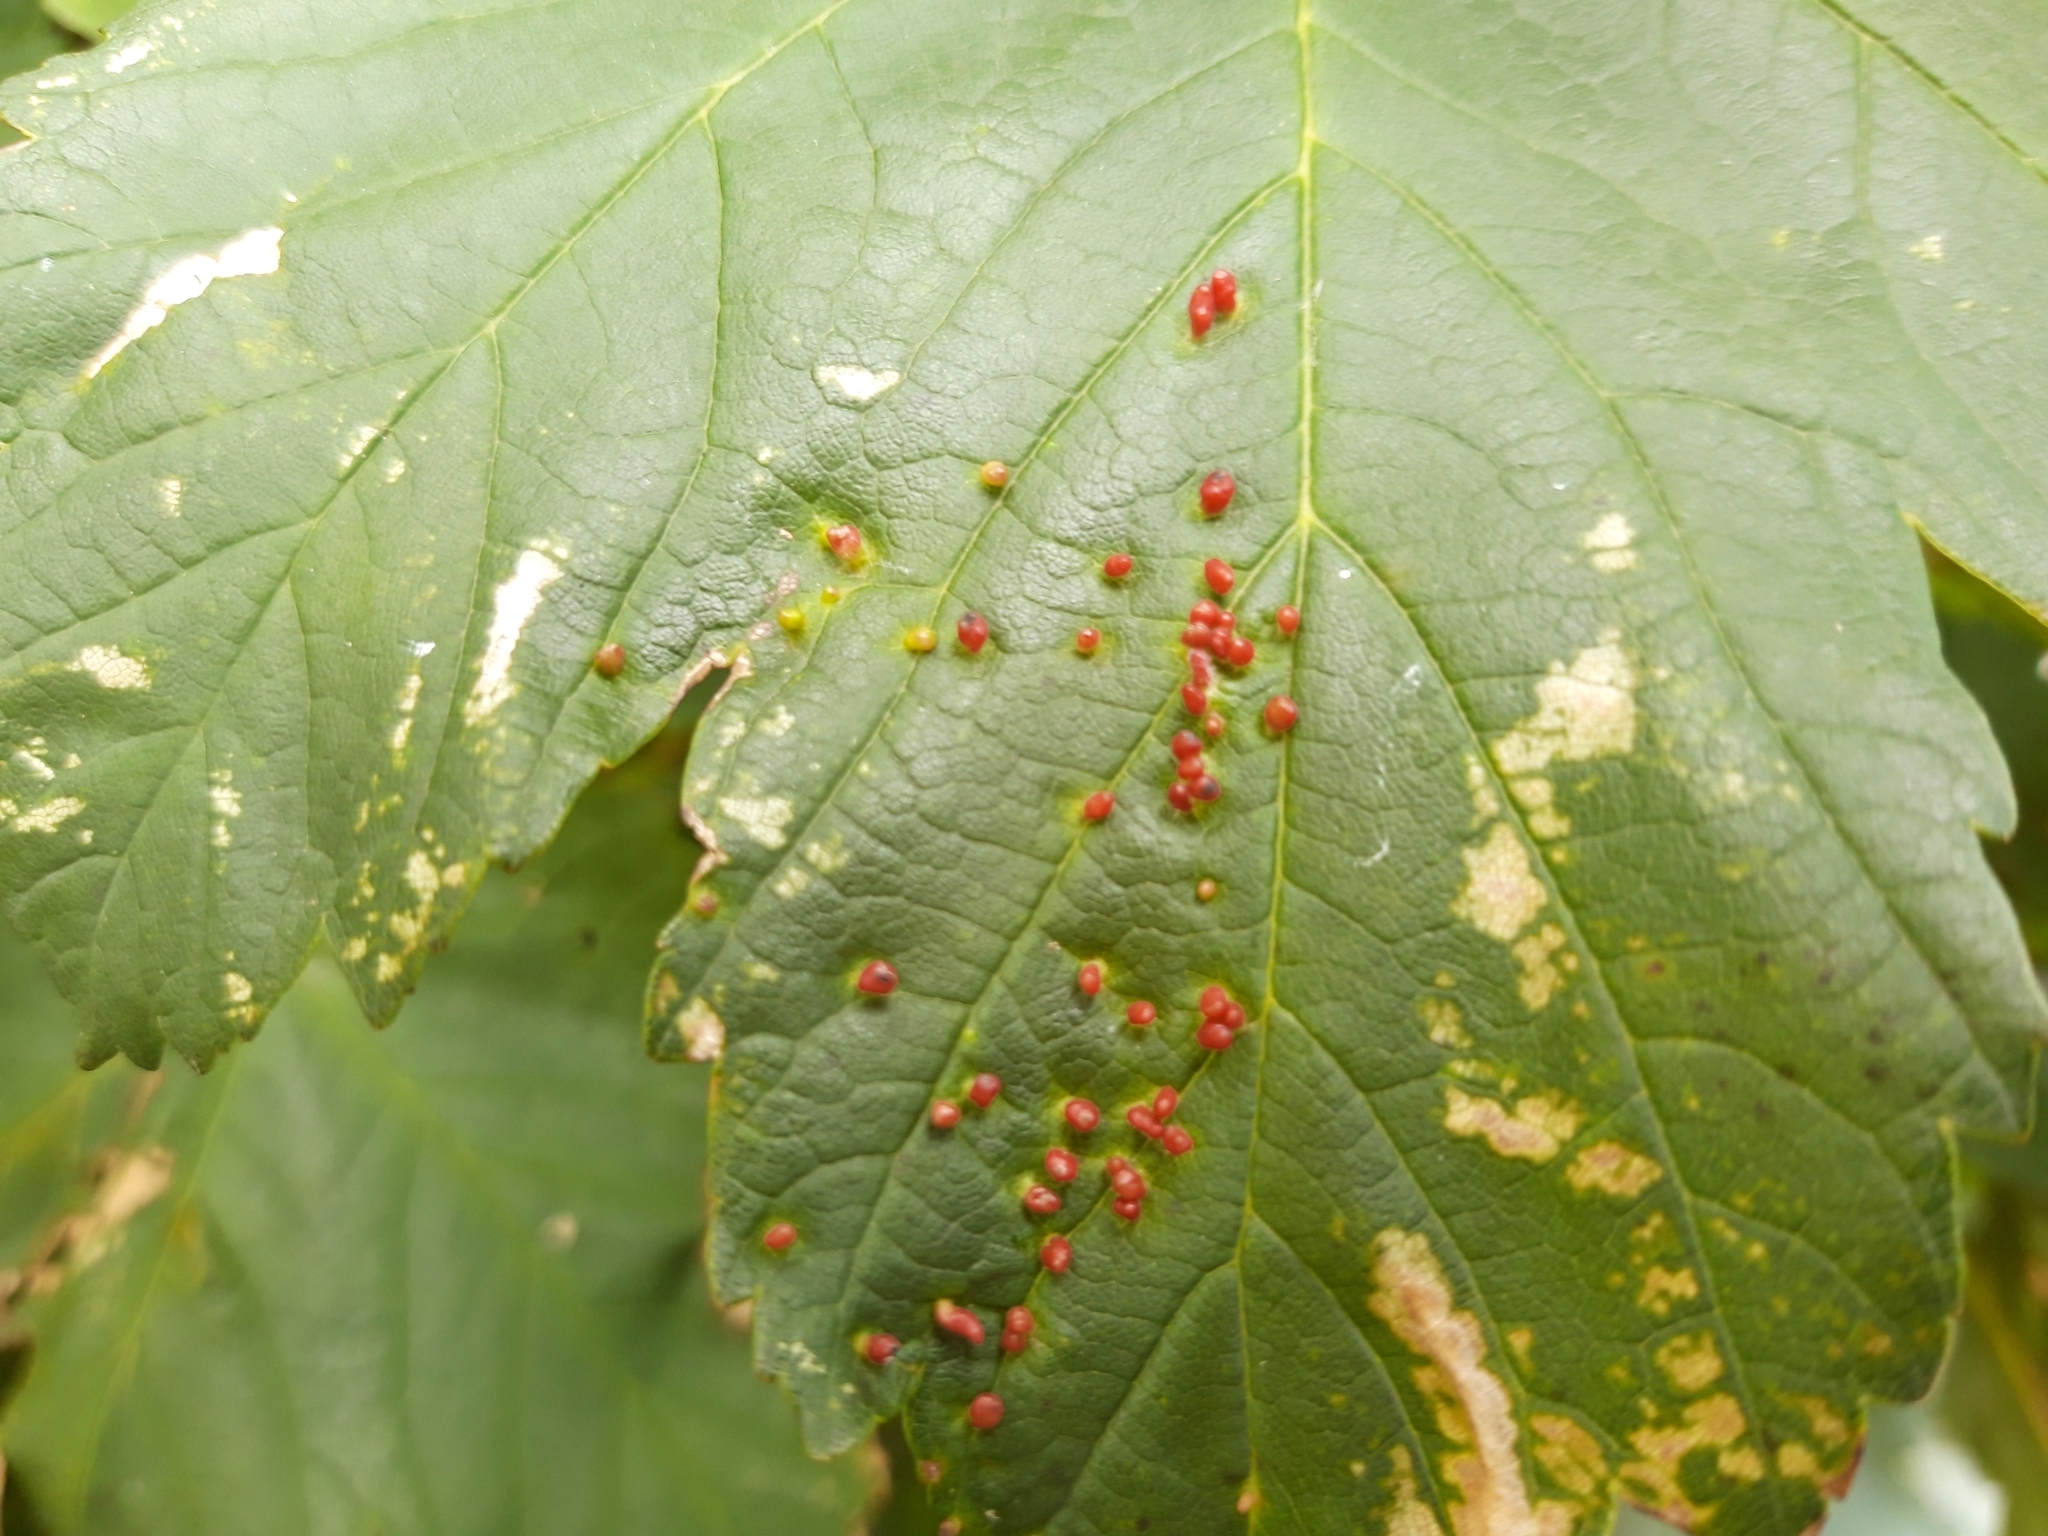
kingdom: Animalia
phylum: Arthropoda
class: Arachnida
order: Trombidiformes
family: Eriophyidae
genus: Aceria
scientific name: Aceria cephaloneus
